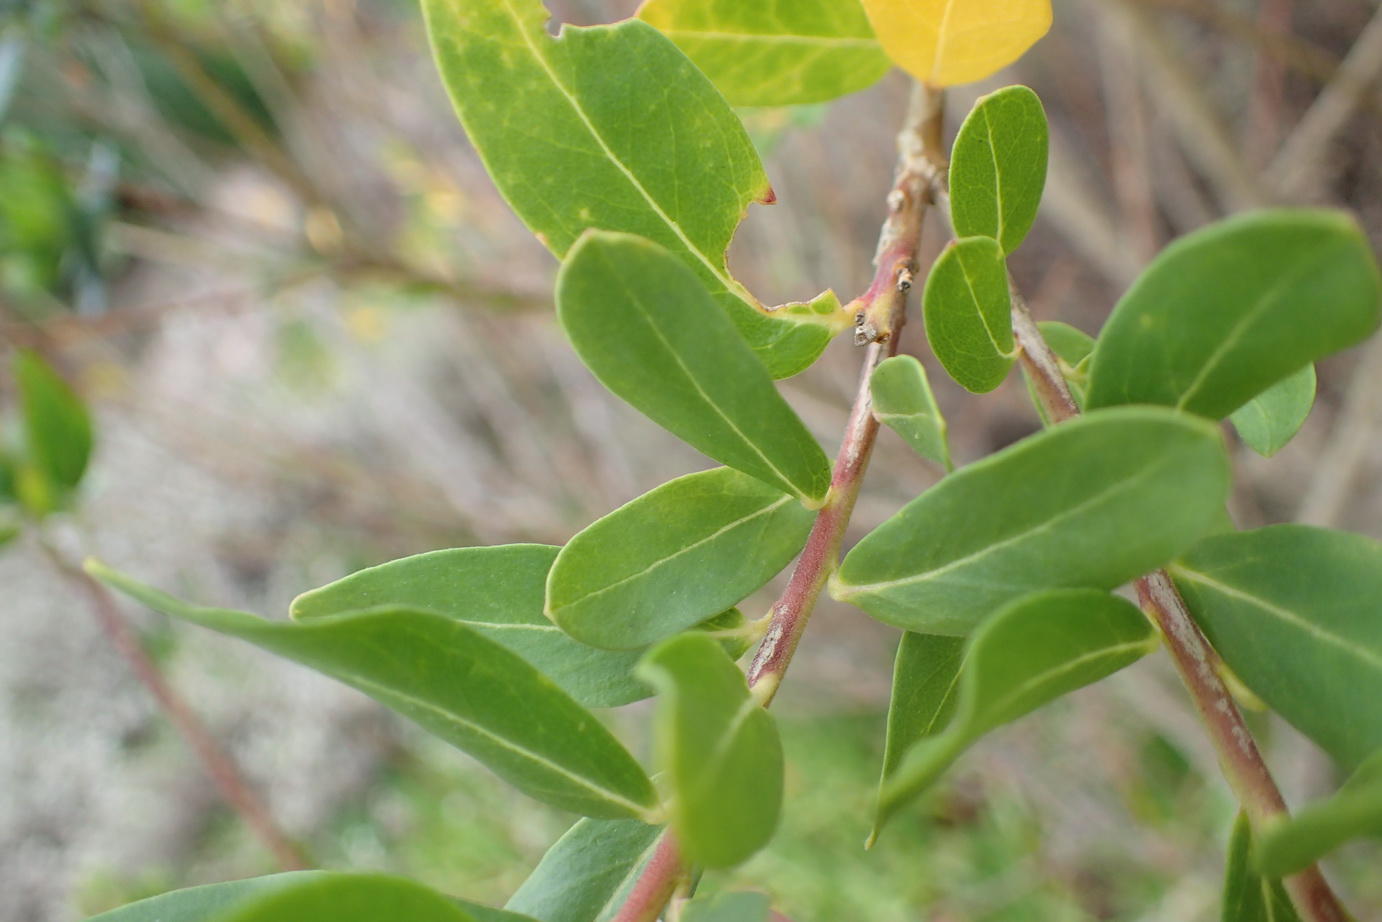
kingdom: Plantae
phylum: Tracheophyta
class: Magnoliopsida
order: Fabales
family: Polygalaceae
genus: Polygala
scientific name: Polygala myrtifolia
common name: Myrtle-leaf milkwort
